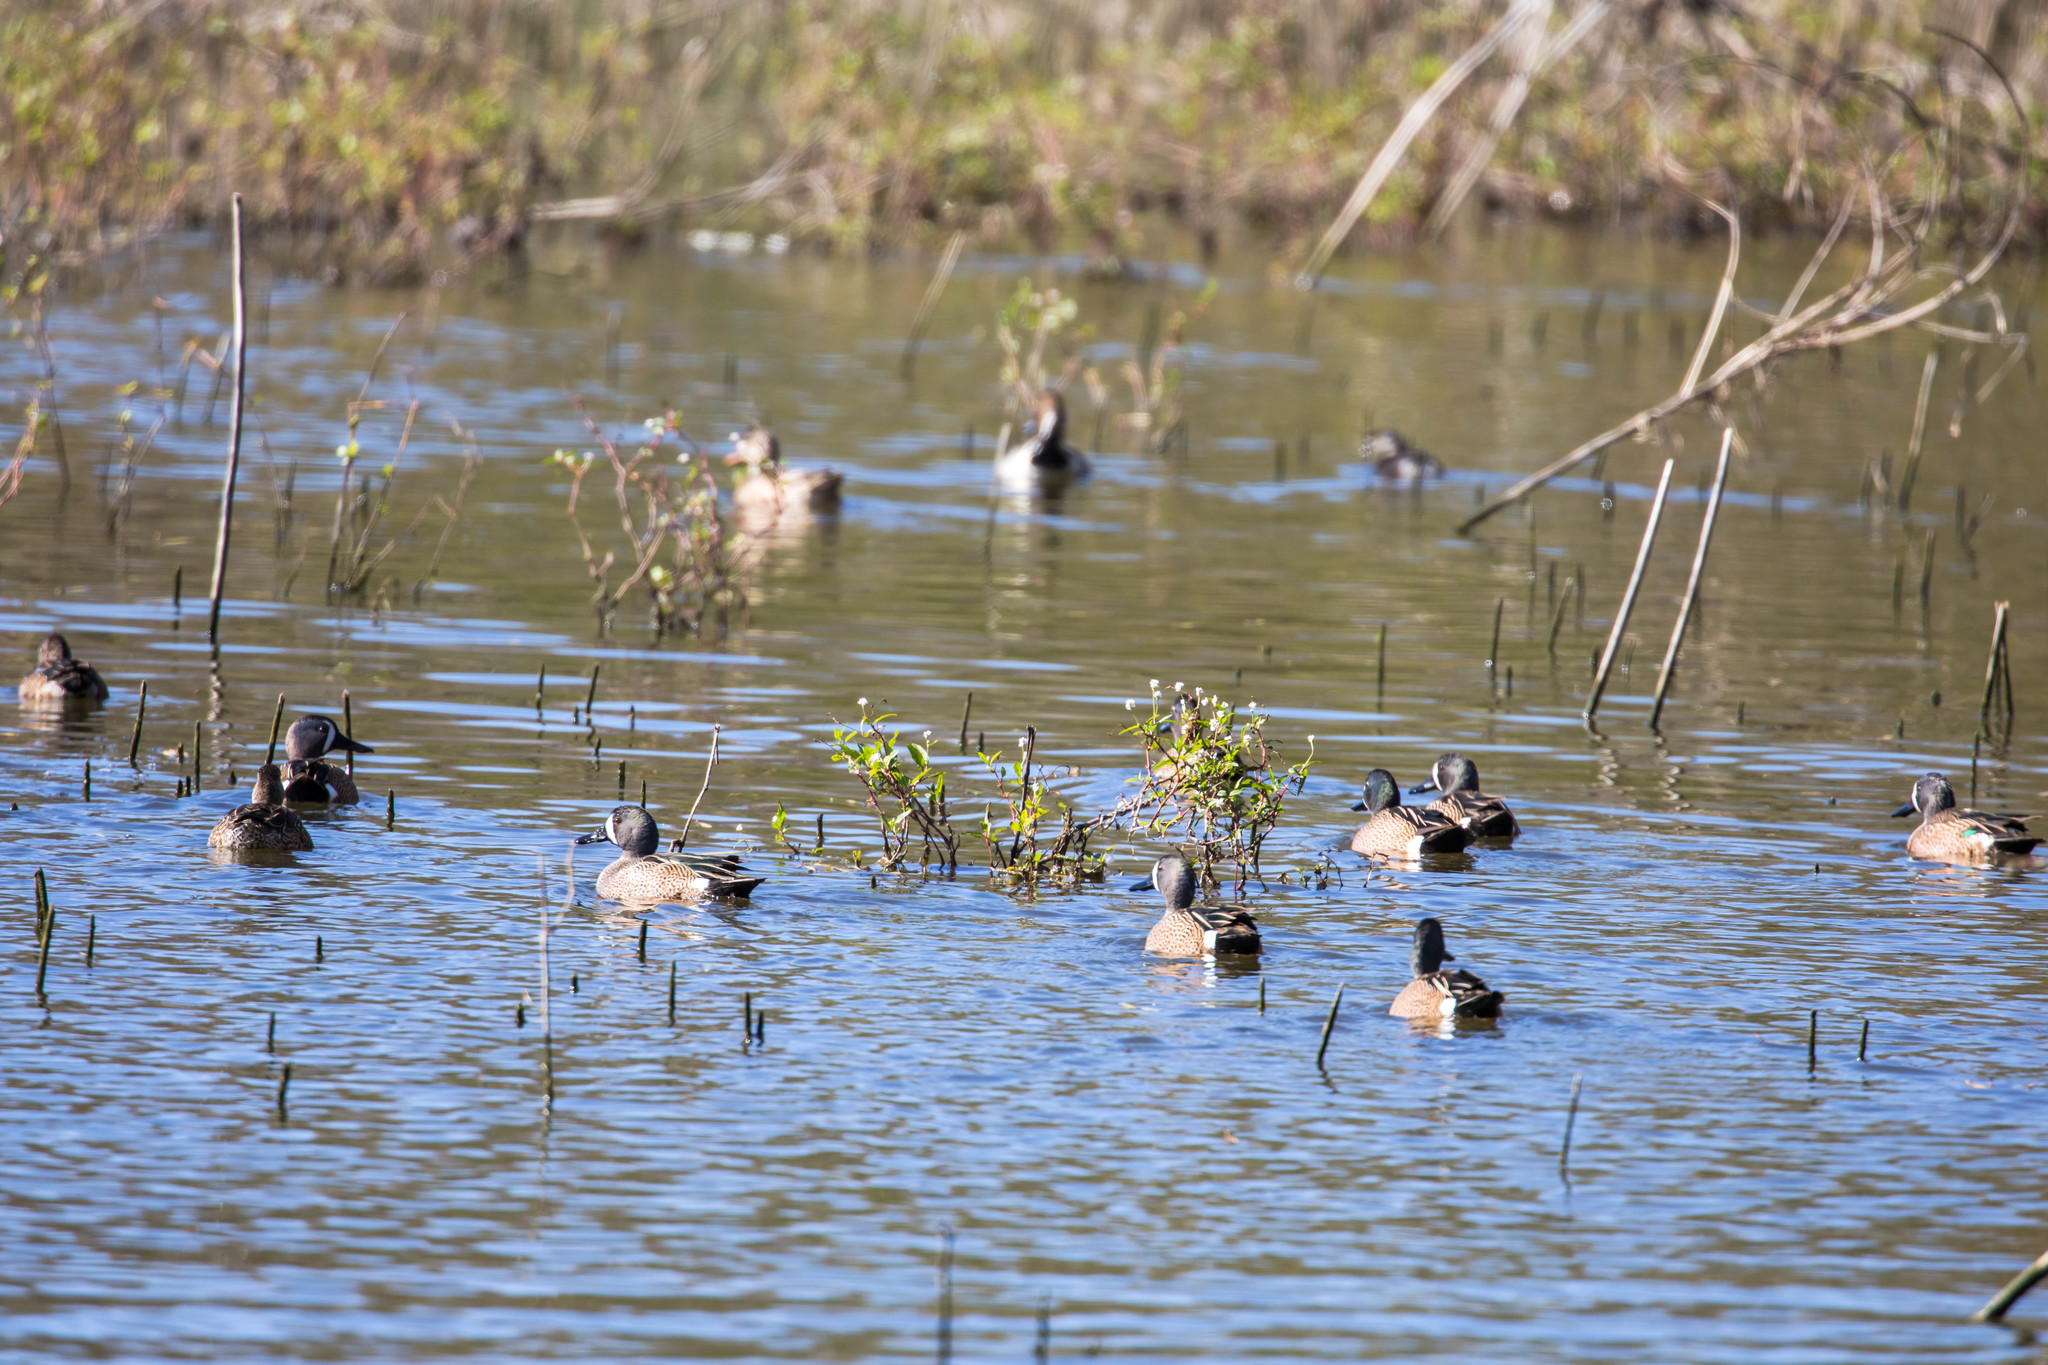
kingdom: Animalia
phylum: Chordata
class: Aves
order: Anseriformes
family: Anatidae
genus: Spatula
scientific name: Spatula discors
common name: Blue-winged teal
